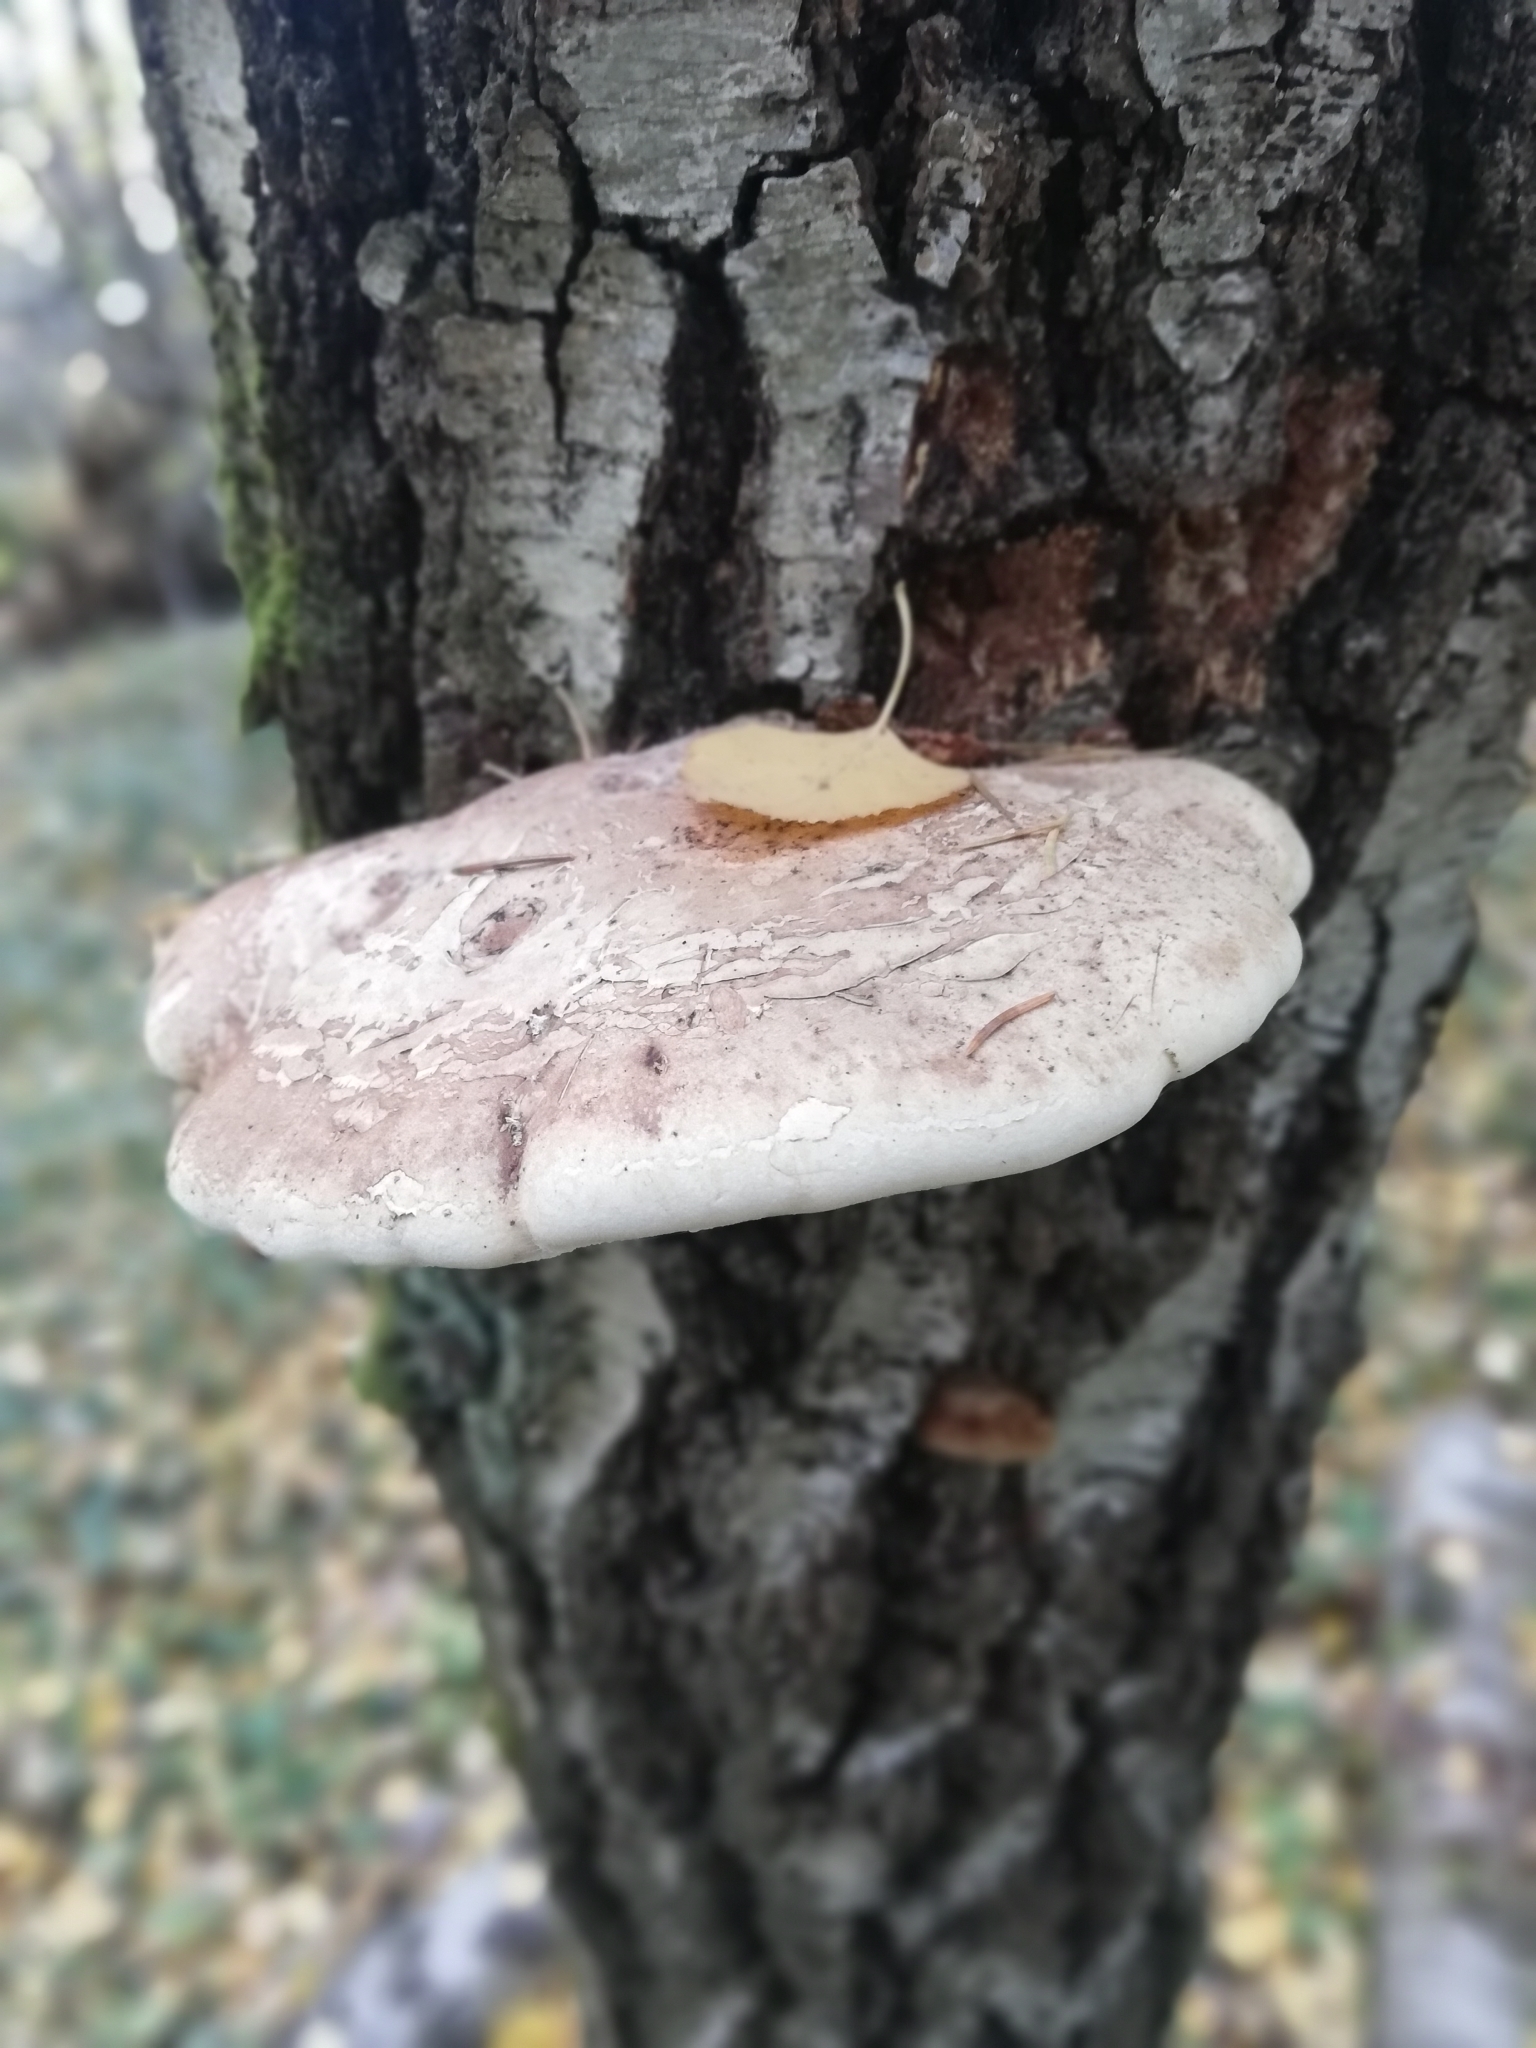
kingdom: Fungi
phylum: Basidiomycota
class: Agaricomycetes
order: Polyporales
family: Fomitopsidaceae
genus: Fomitopsis
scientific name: Fomitopsis betulina
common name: Birch polypore
